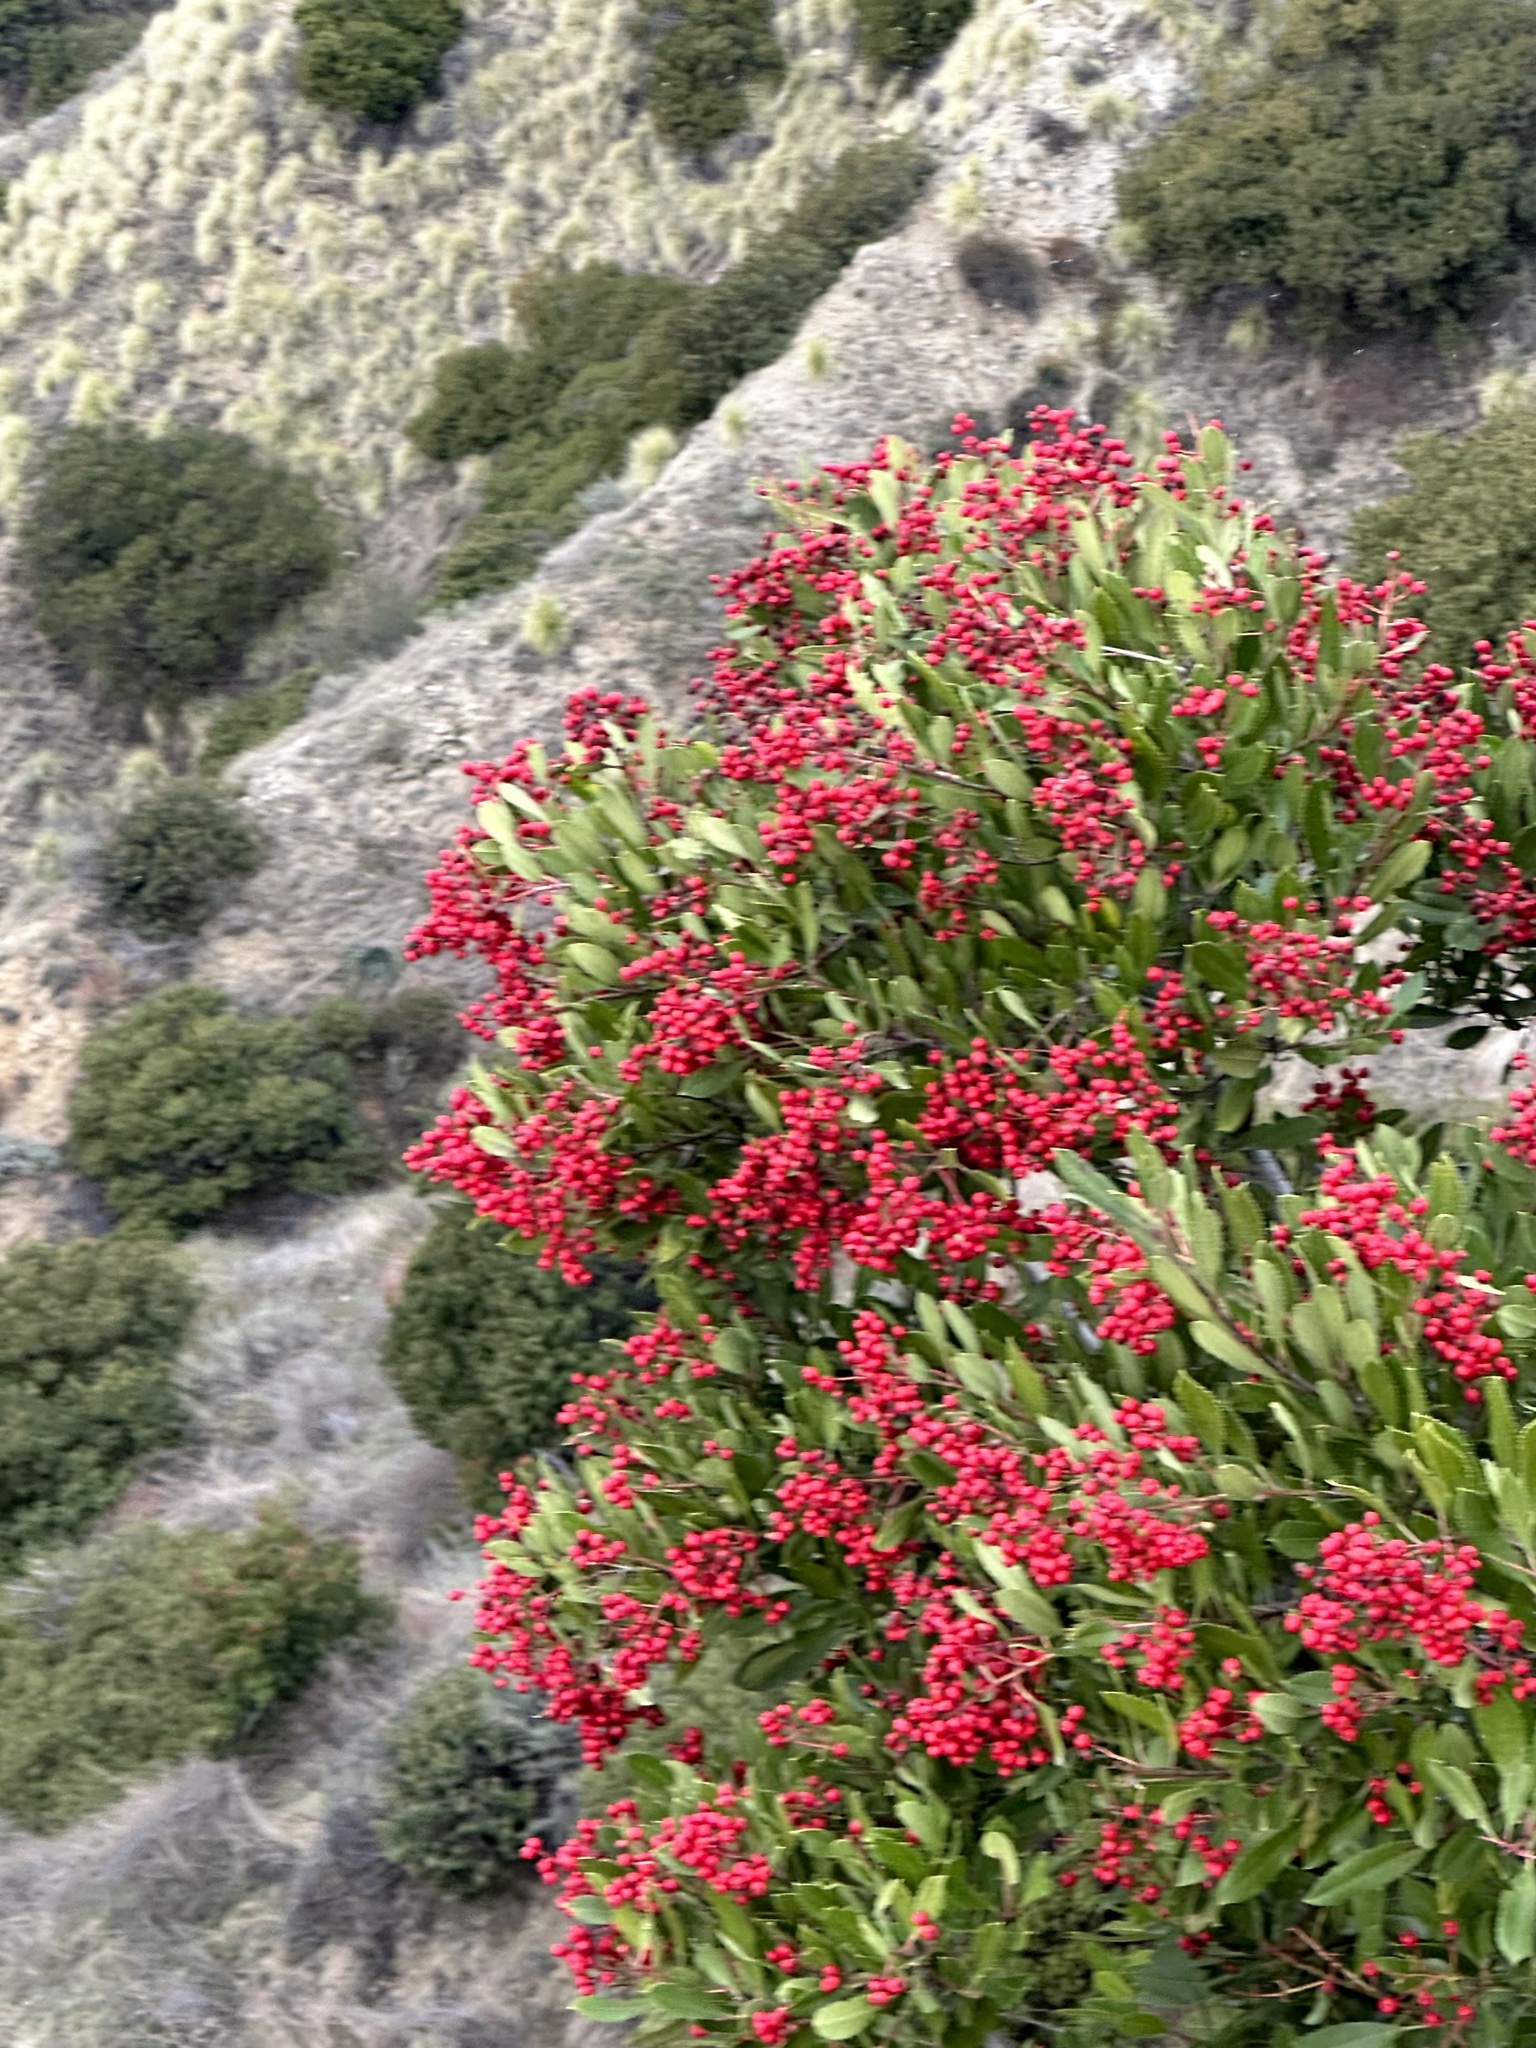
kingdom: Plantae
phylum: Tracheophyta
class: Magnoliopsida
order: Rosales
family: Rosaceae
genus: Heteromeles
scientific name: Heteromeles arbutifolia
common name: California-holly
